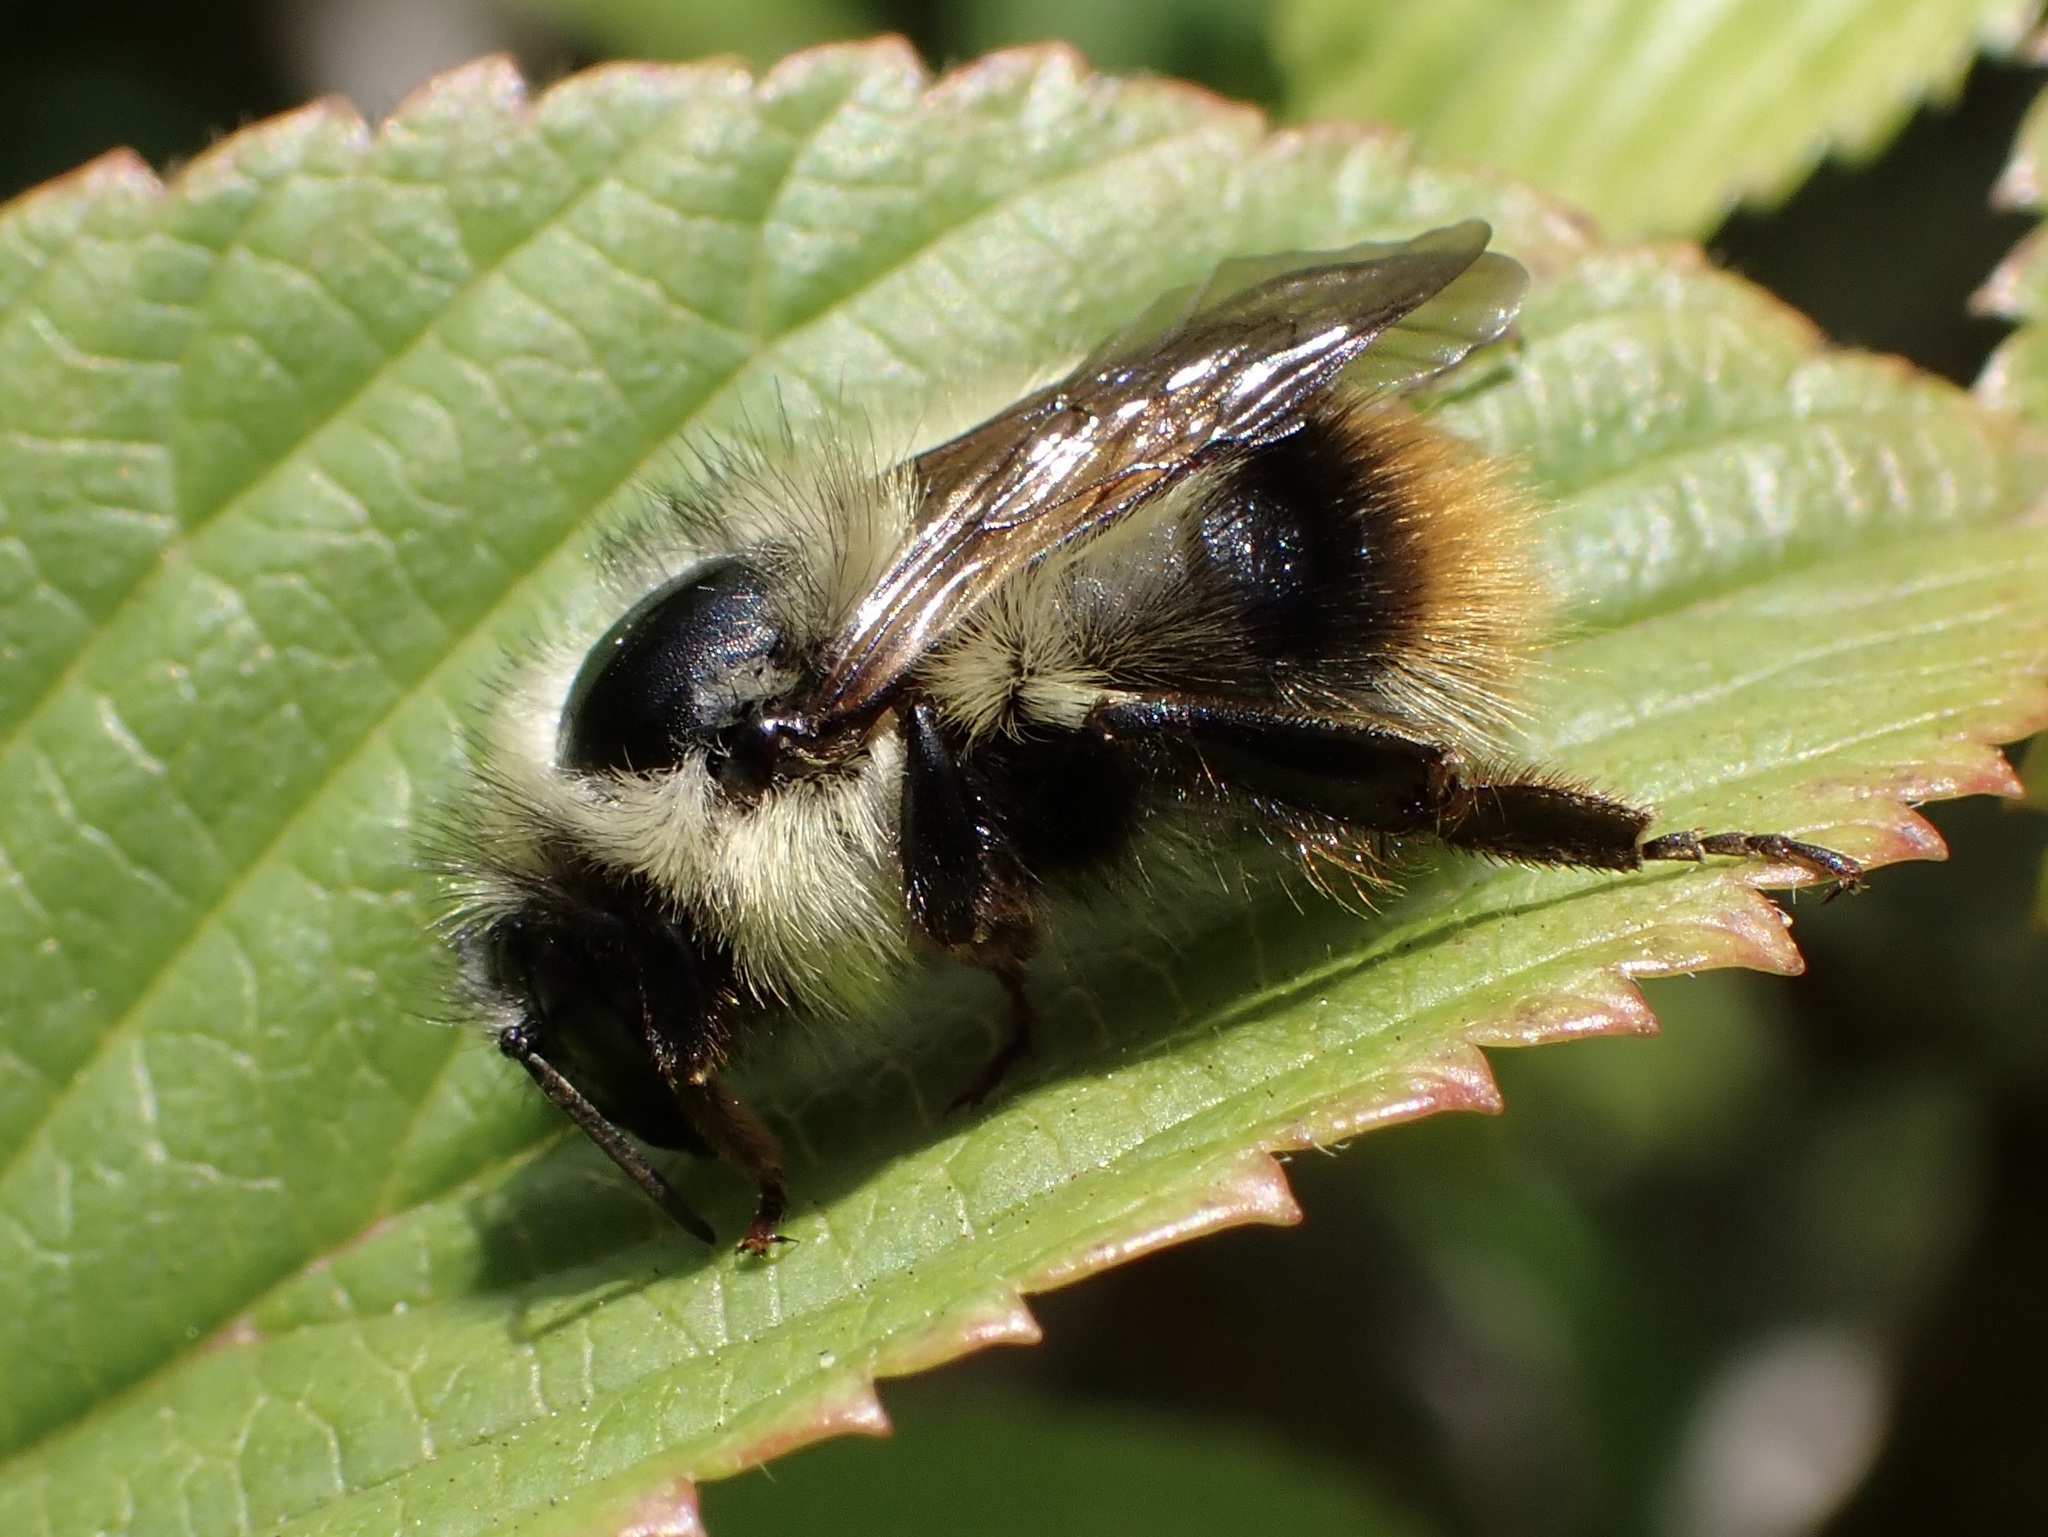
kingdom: Animalia
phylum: Arthropoda
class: Insecta
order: Hymenoptera
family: Apidae
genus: Bombus
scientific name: Bombus mixtus
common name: Fuzzy-horned bumble bee
